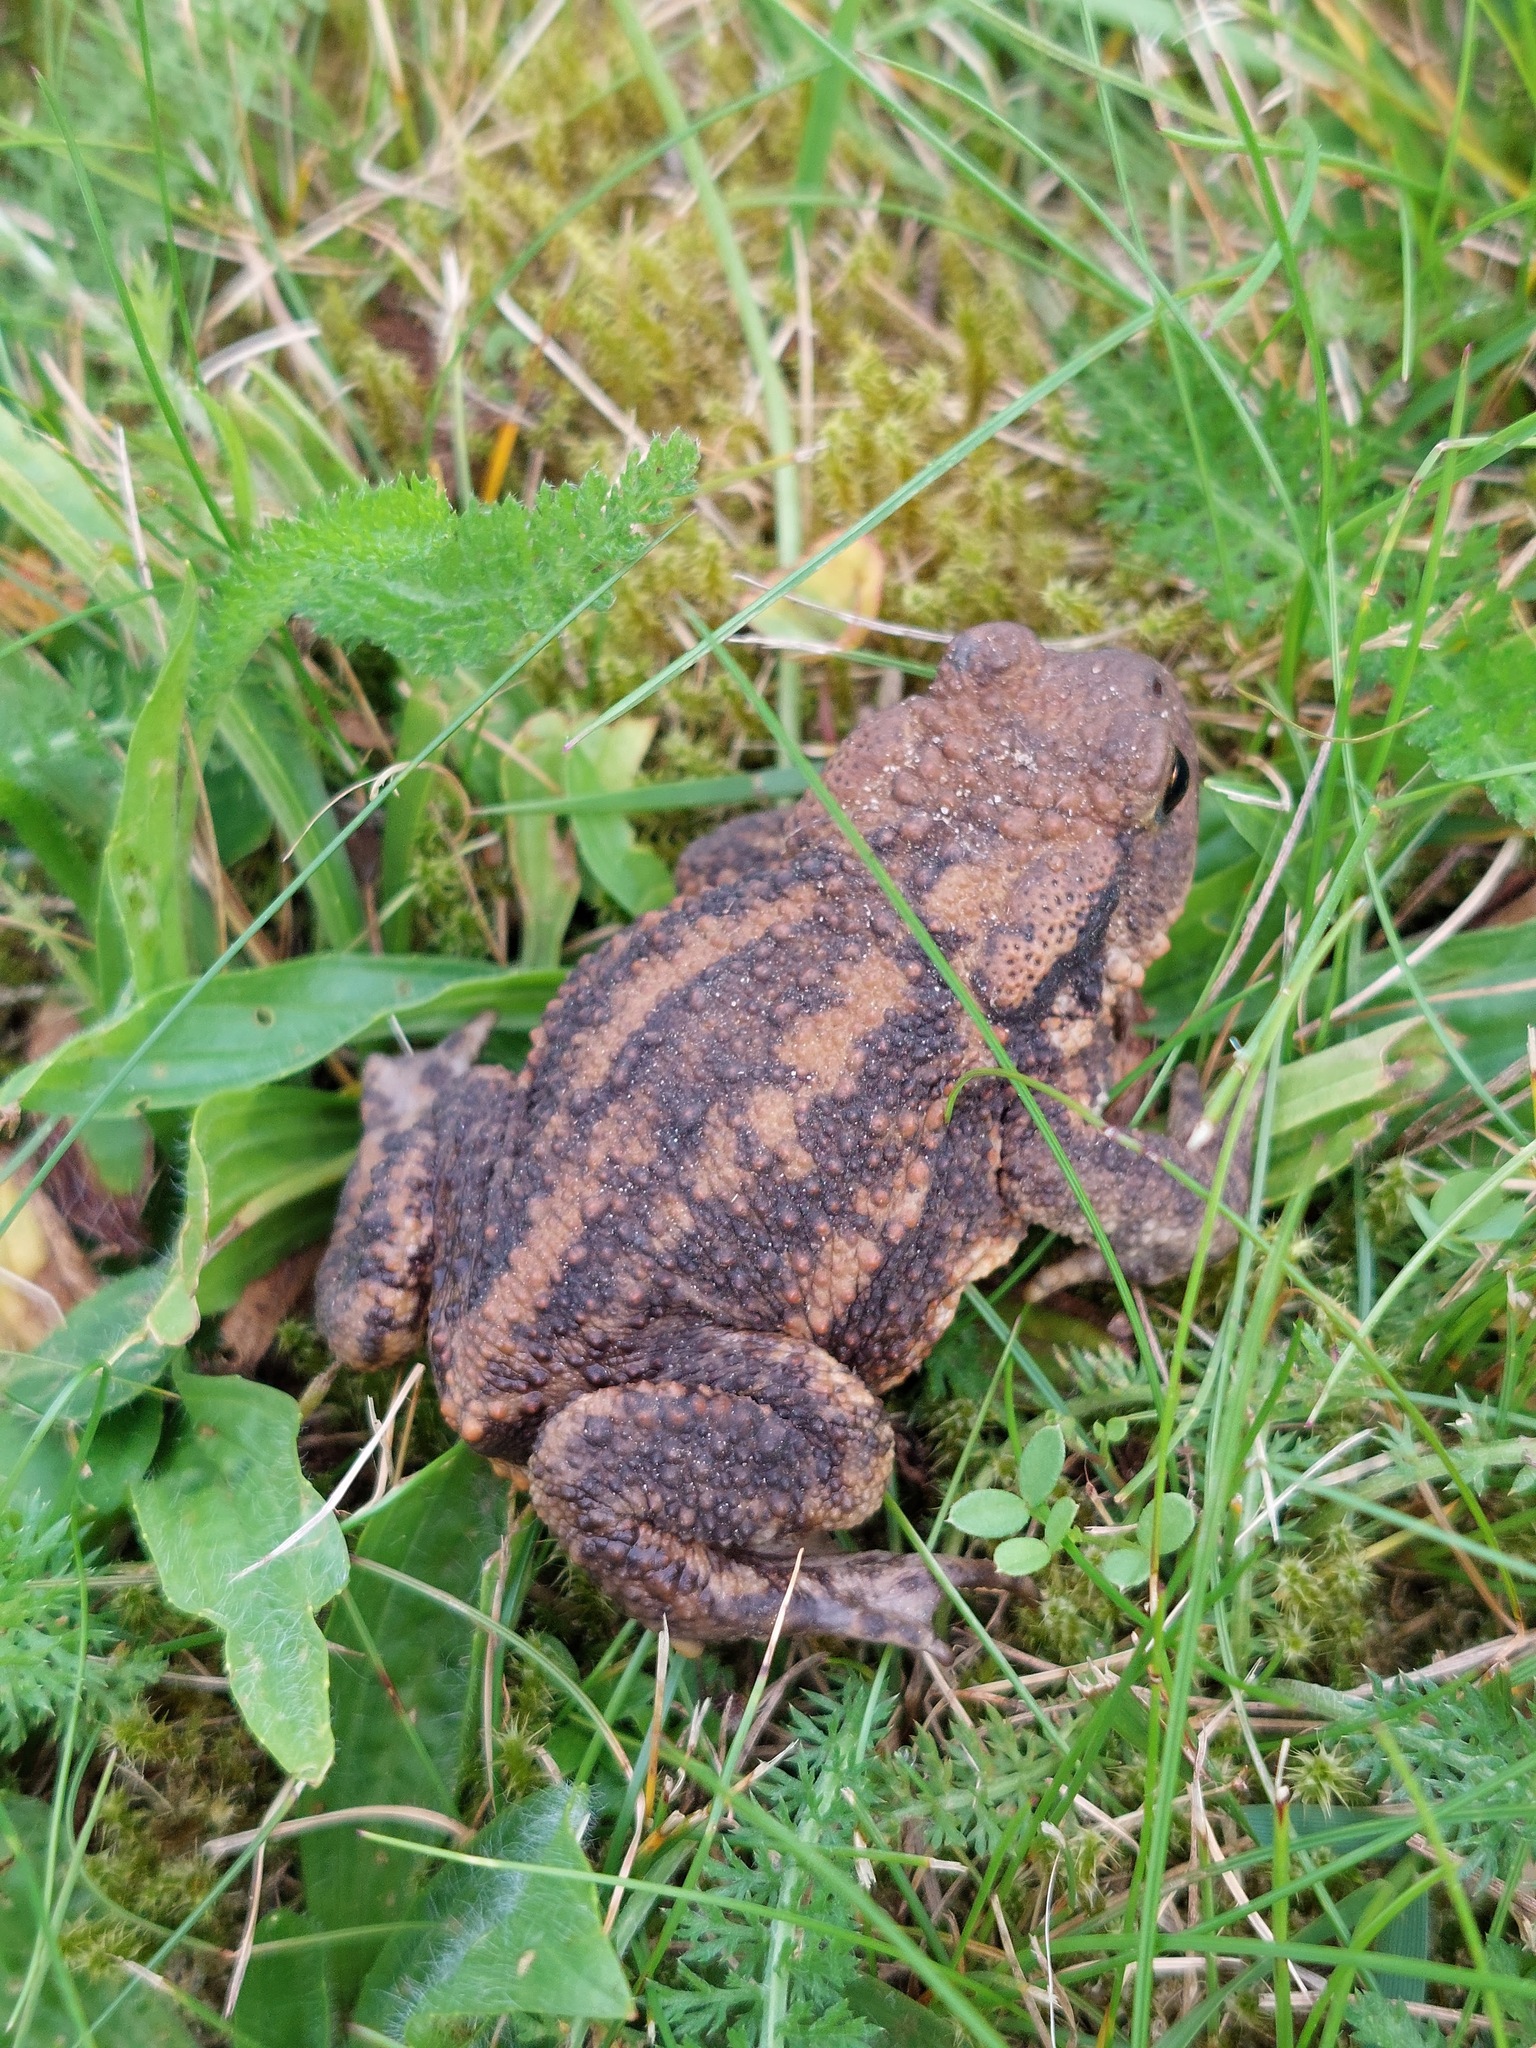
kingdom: Animalia
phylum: Chordata
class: Amphibia
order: Anura
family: Bufonidae
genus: Bufo
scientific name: Bufo bufo
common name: Common toad
